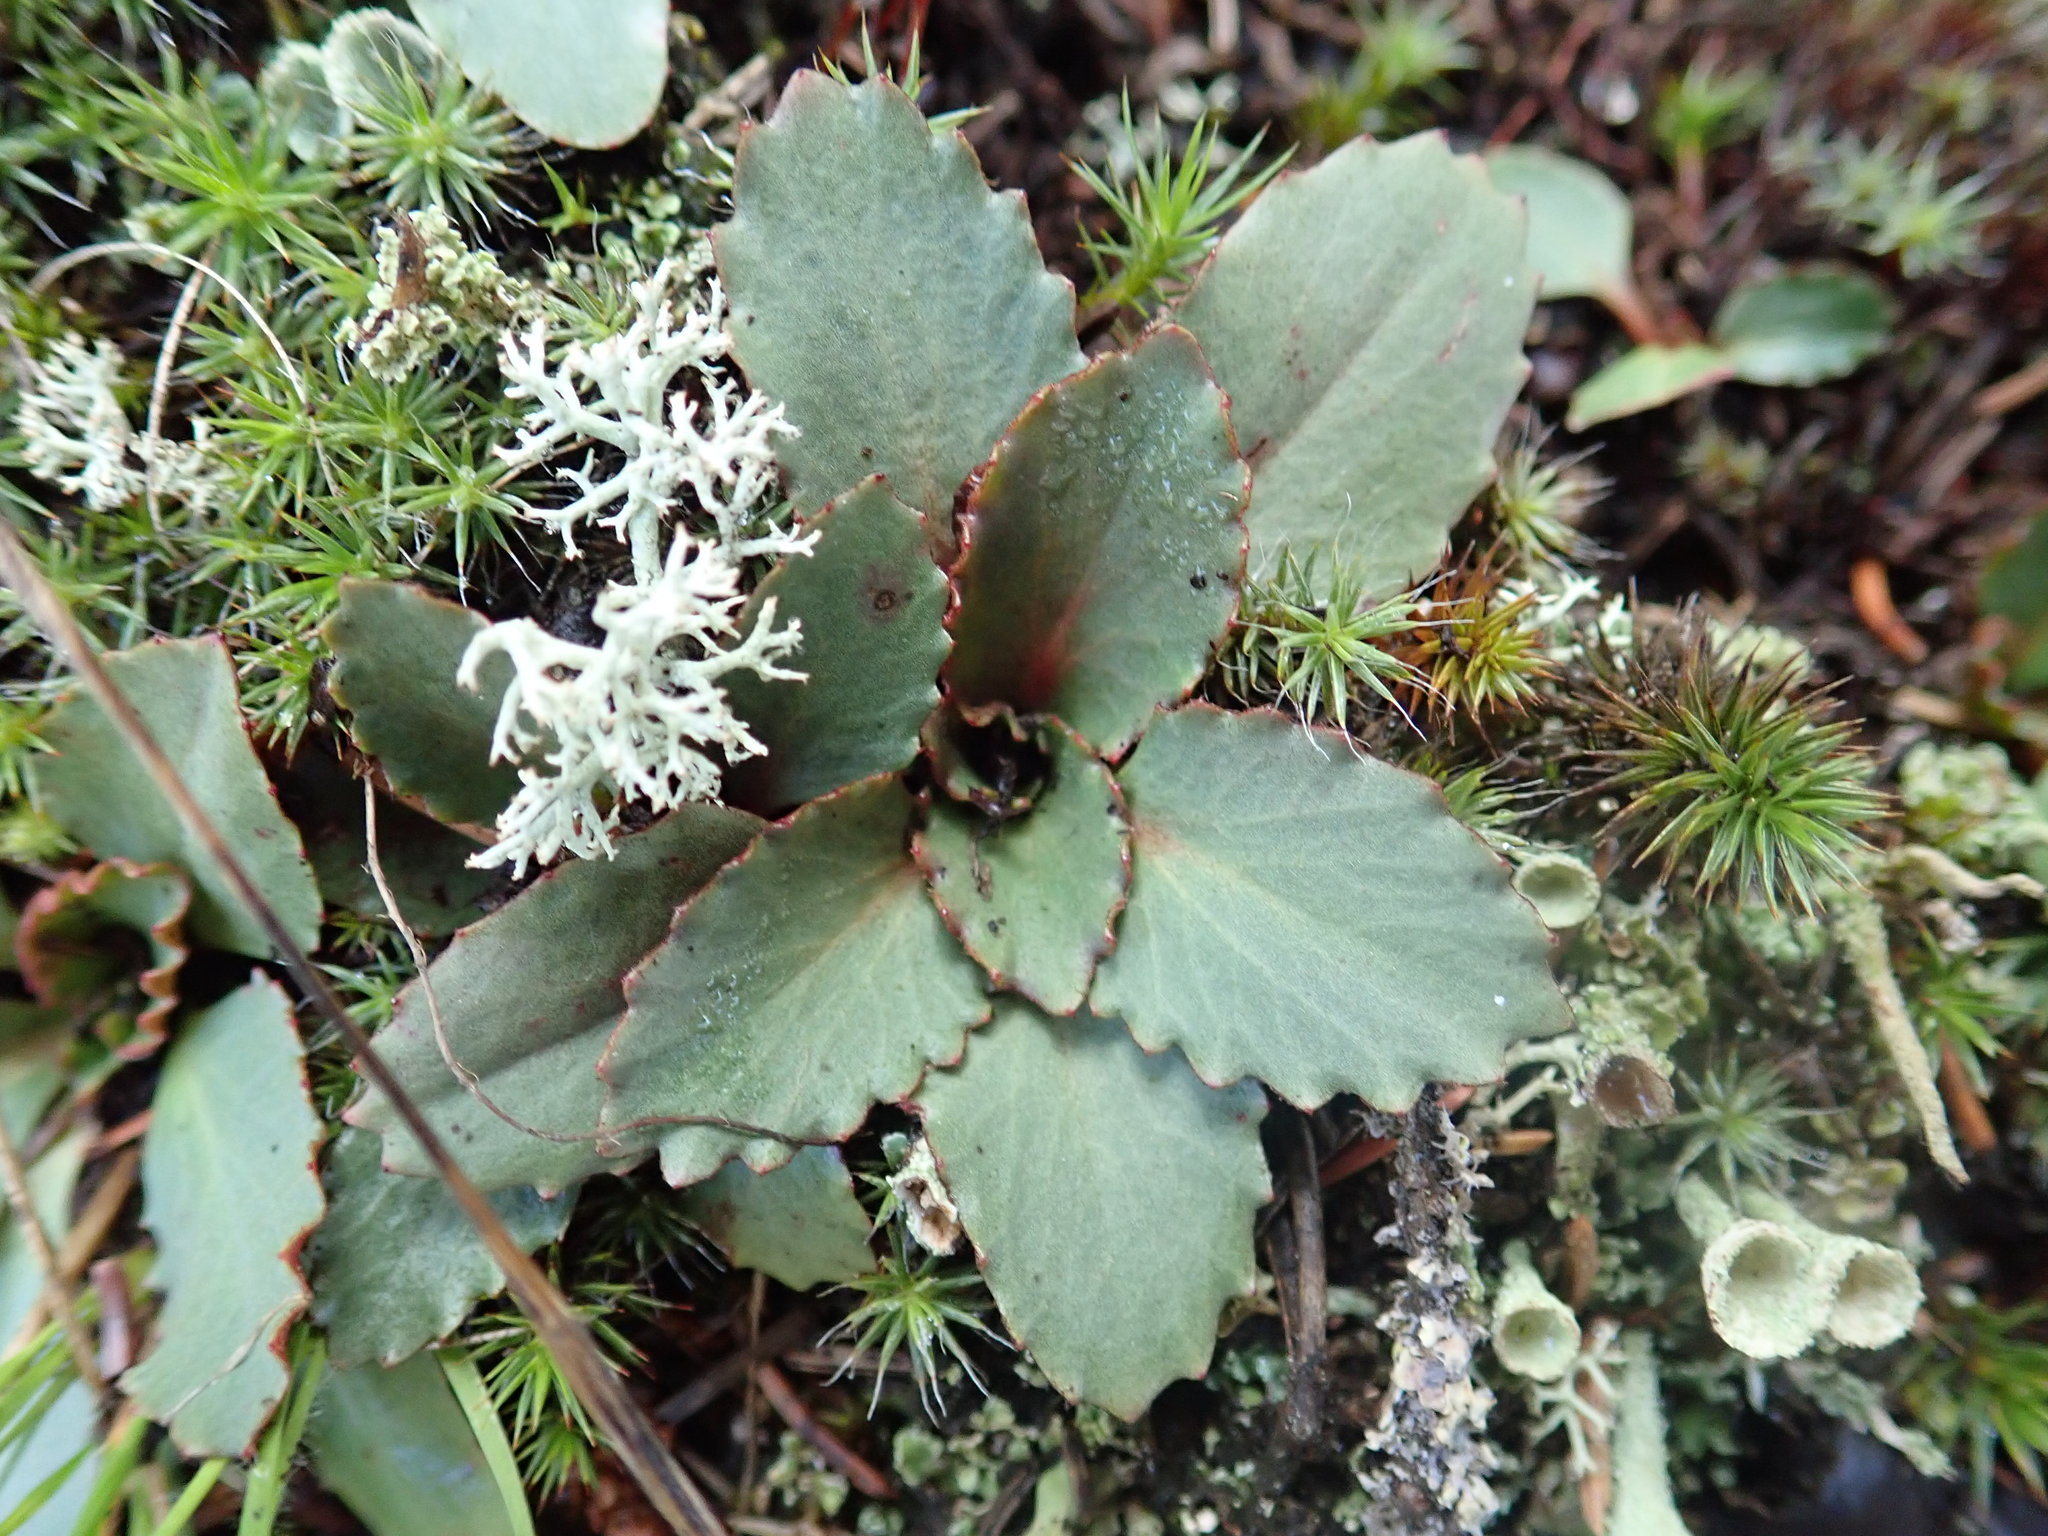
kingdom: Plantae
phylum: Tracheophyta
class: Magnoliopsida
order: Saxifragales
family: Saxifragaceae
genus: Micranthes
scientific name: Micranthes virginiensis
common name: Early saxifrage
